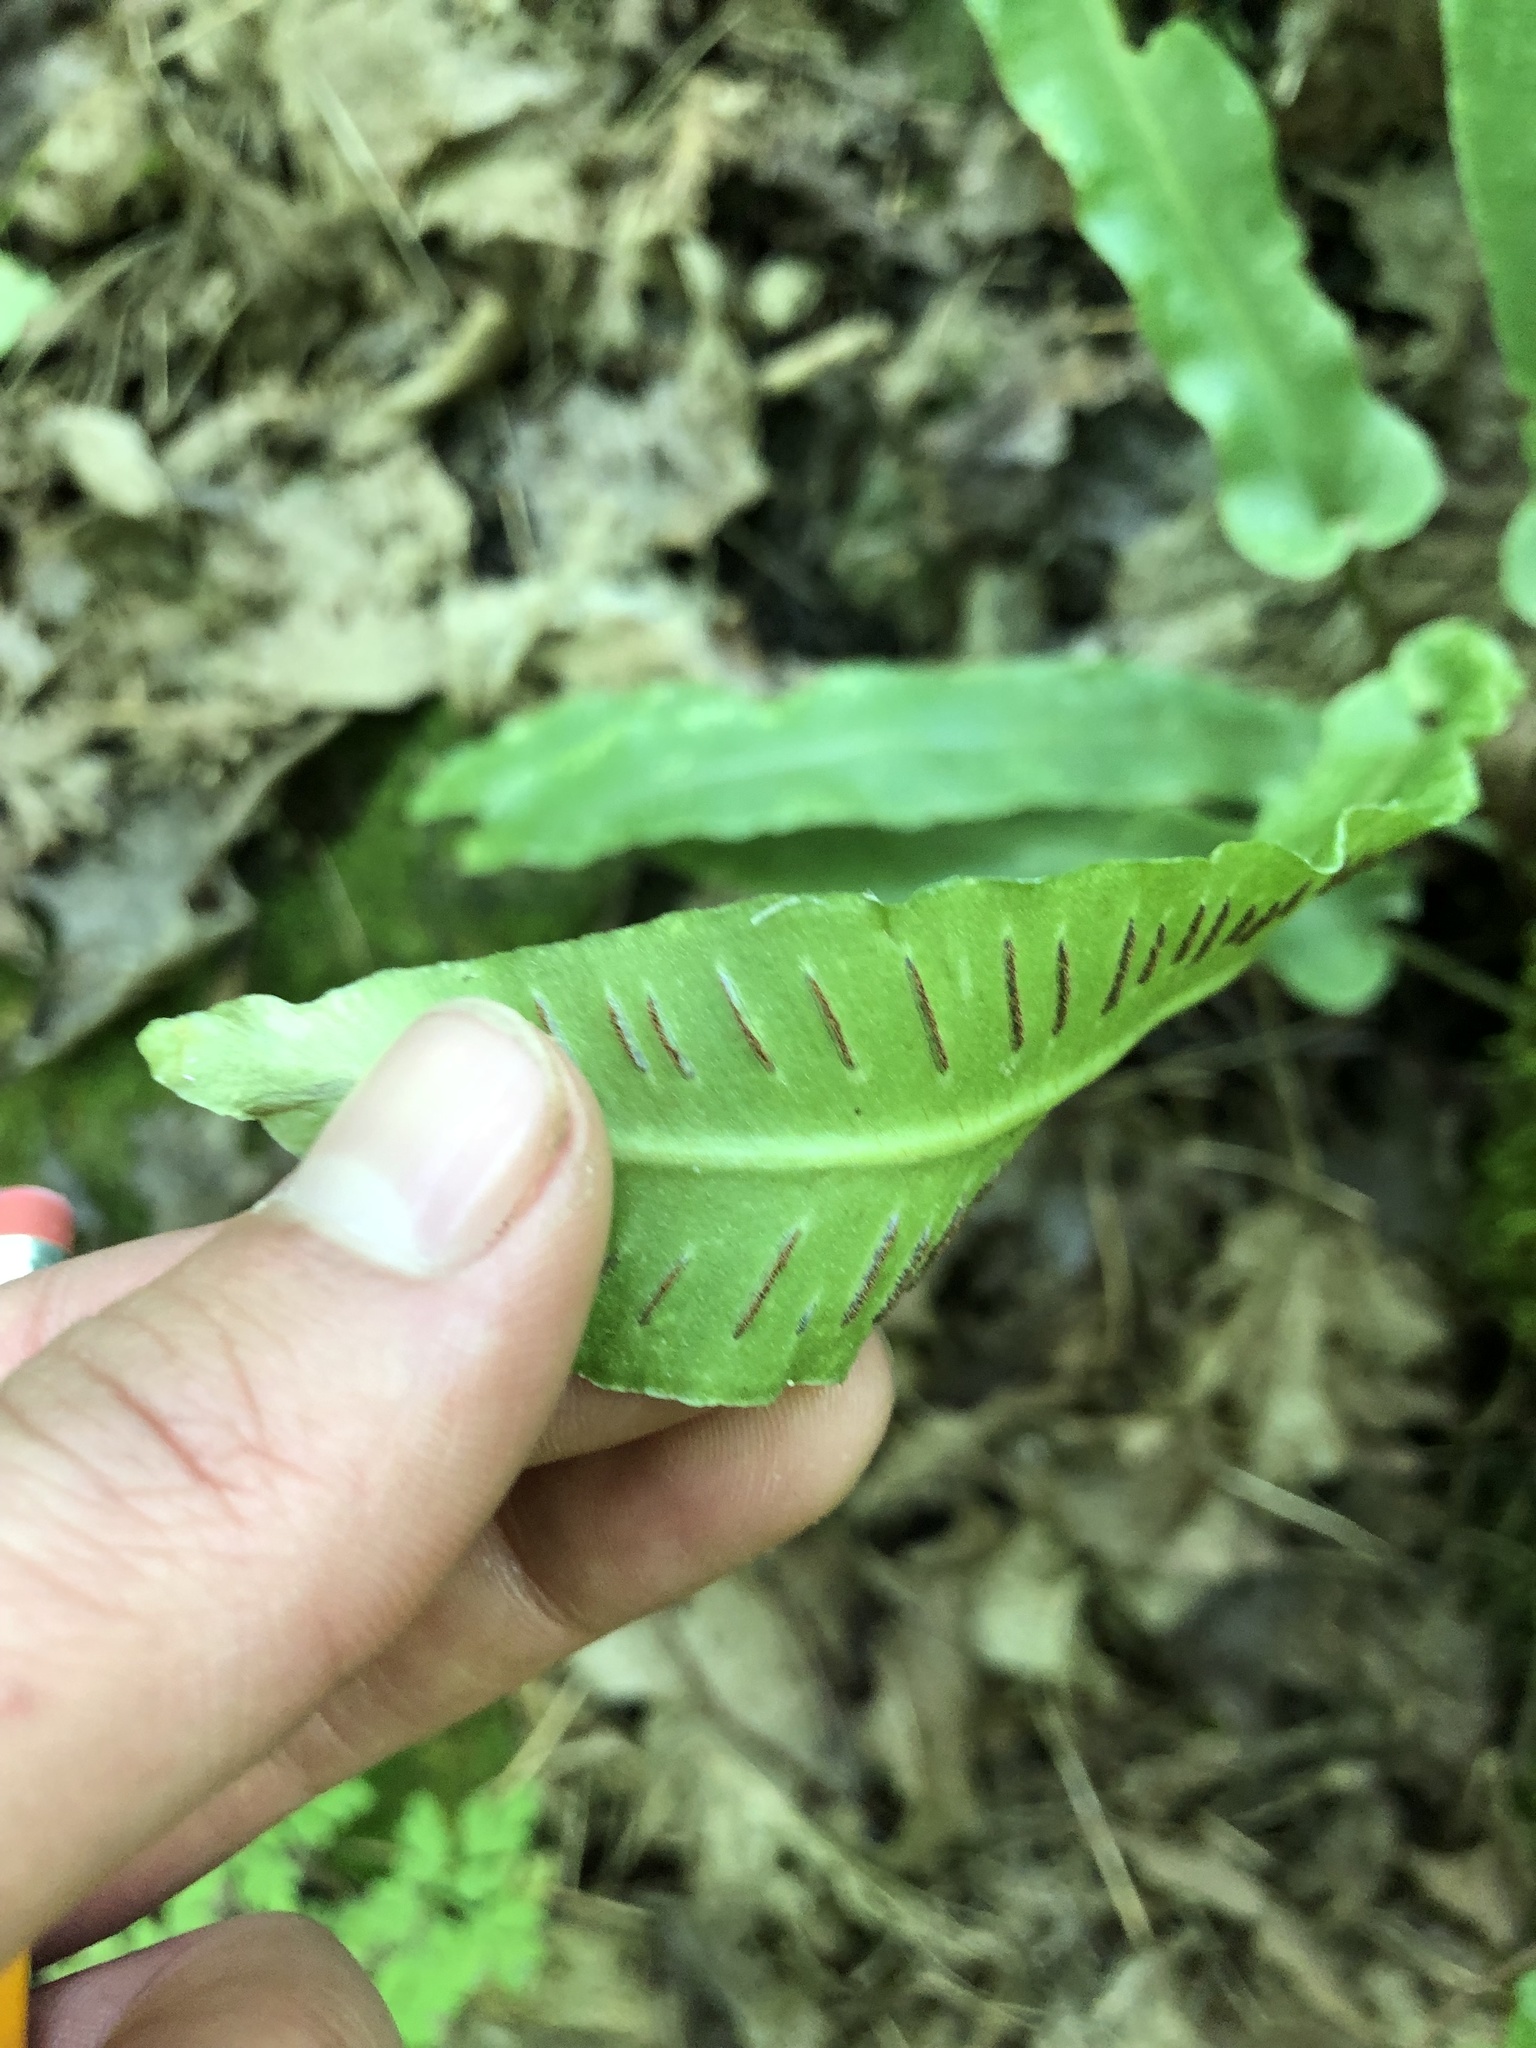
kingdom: Plantae
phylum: Tracheophyta
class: Polypodiopsida
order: Polypodiales
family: Aspleniaceae
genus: Asplenium
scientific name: Asplenium scolopendrium
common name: Hart's-tongue fern
